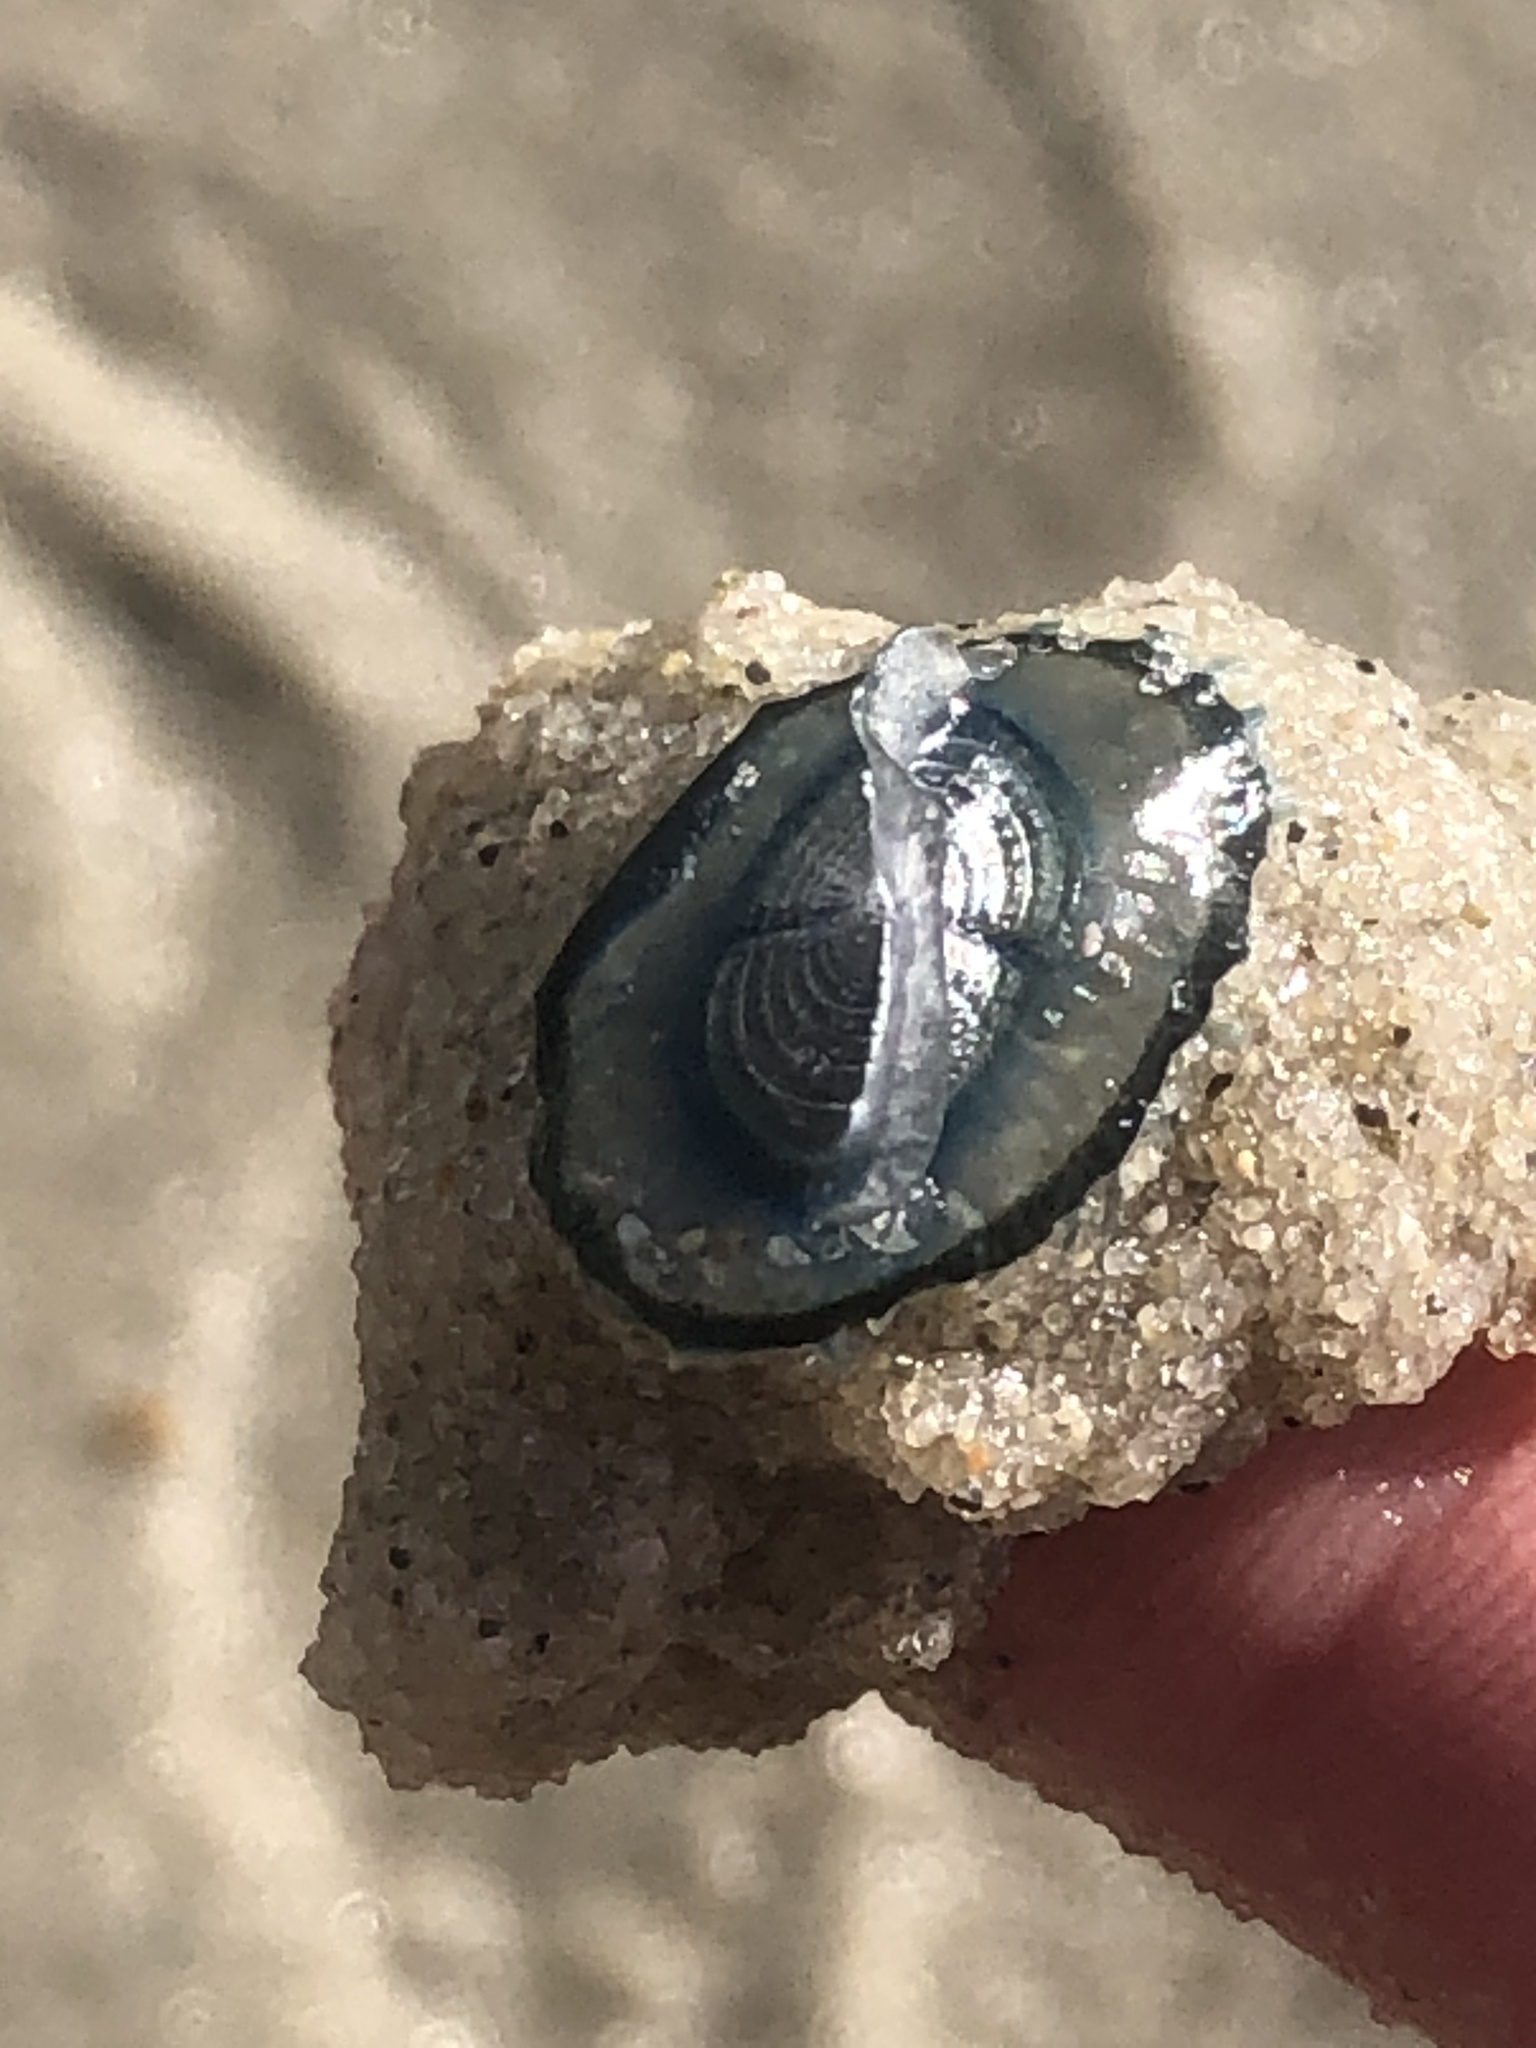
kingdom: Animalia
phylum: Cnidaria
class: Hydrozoa
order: Anthoathecata
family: Porpitidae
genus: Velella
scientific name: Velella velella
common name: By-the-wind-sailor
